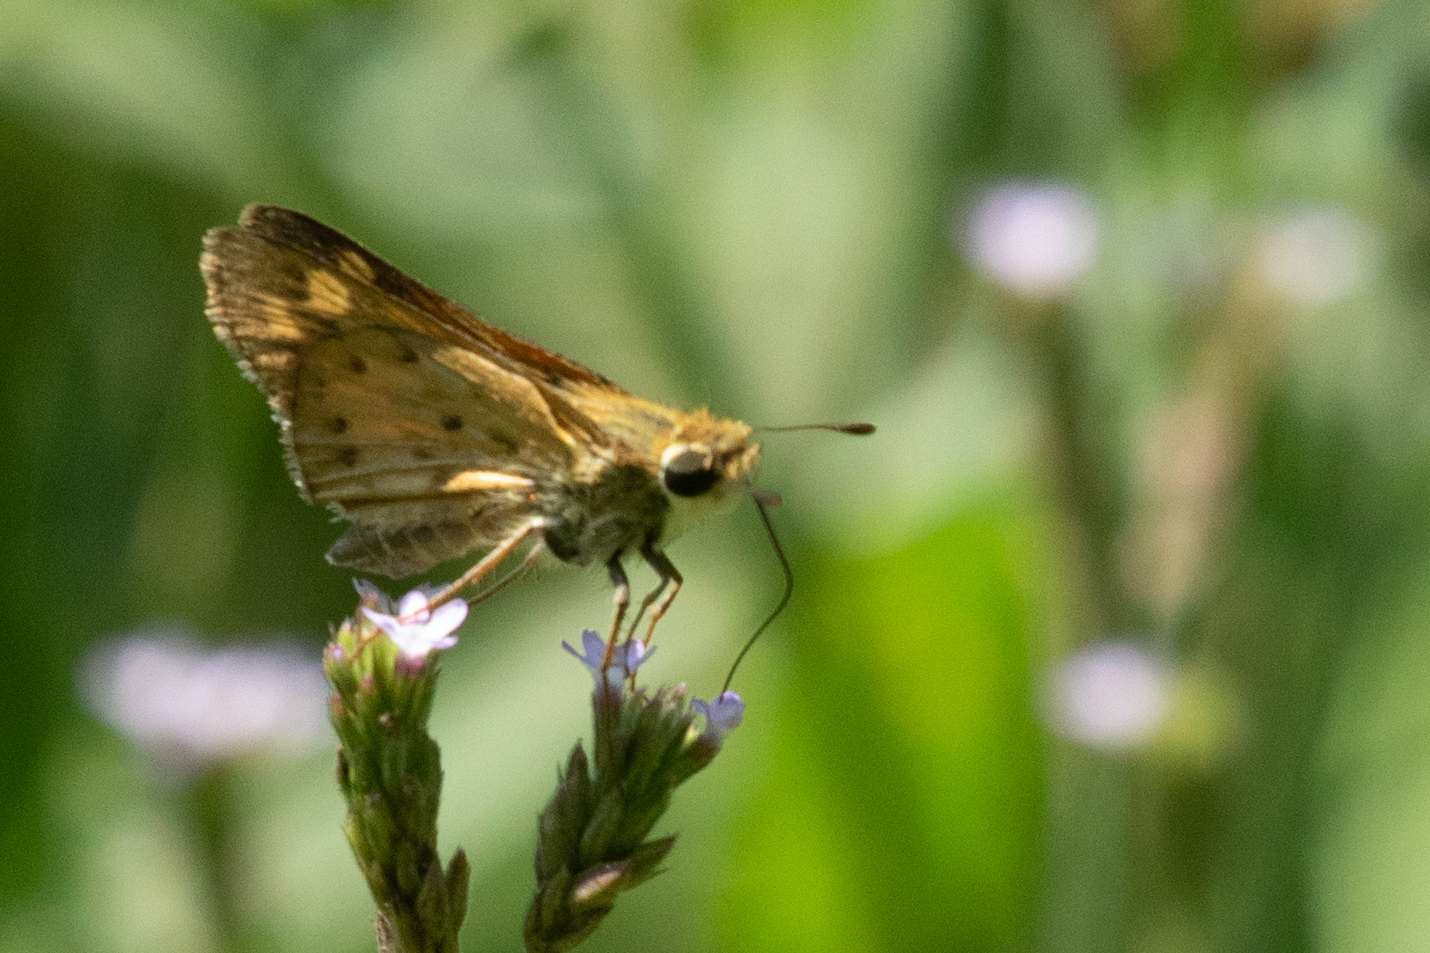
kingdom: Animalia
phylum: Arthropoda
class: Insecta
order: Lepidoptera
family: Hesperiidae
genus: Hylephila
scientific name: Hylephila phyleus
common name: Fiery skipper
